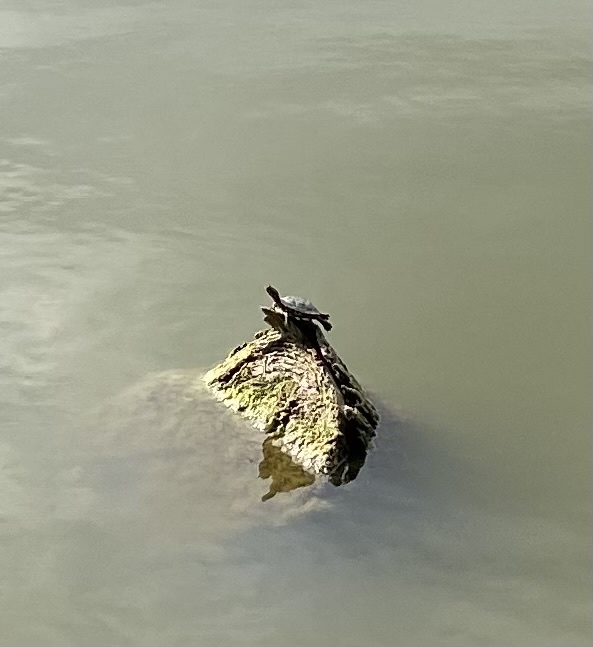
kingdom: Animalia
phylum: Chordata
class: Testudines
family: Emydidae
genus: Trachemys
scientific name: Trachemys scripta
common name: Slider
